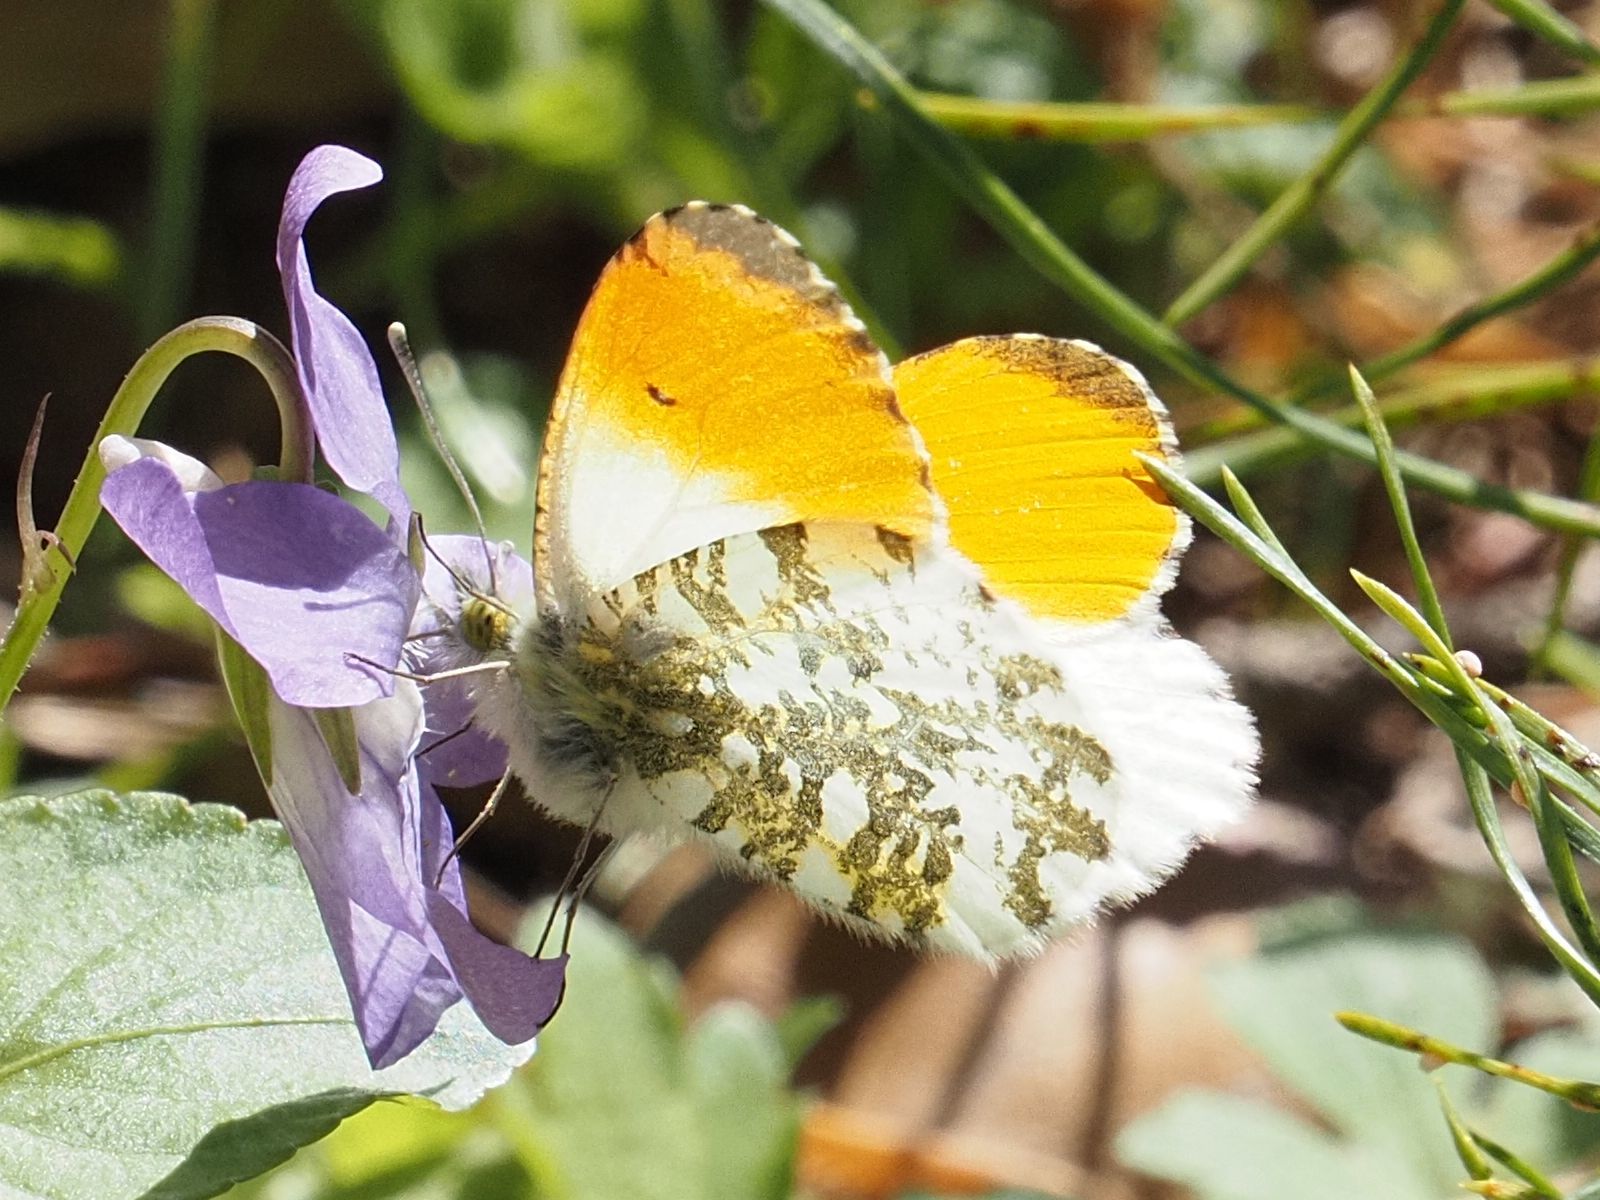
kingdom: Animalia
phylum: Arthropoda
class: Insecta
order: Lepidoptera
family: Pieridae
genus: Anthocharis
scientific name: Anthocharis cardamines
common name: Orange-tip
